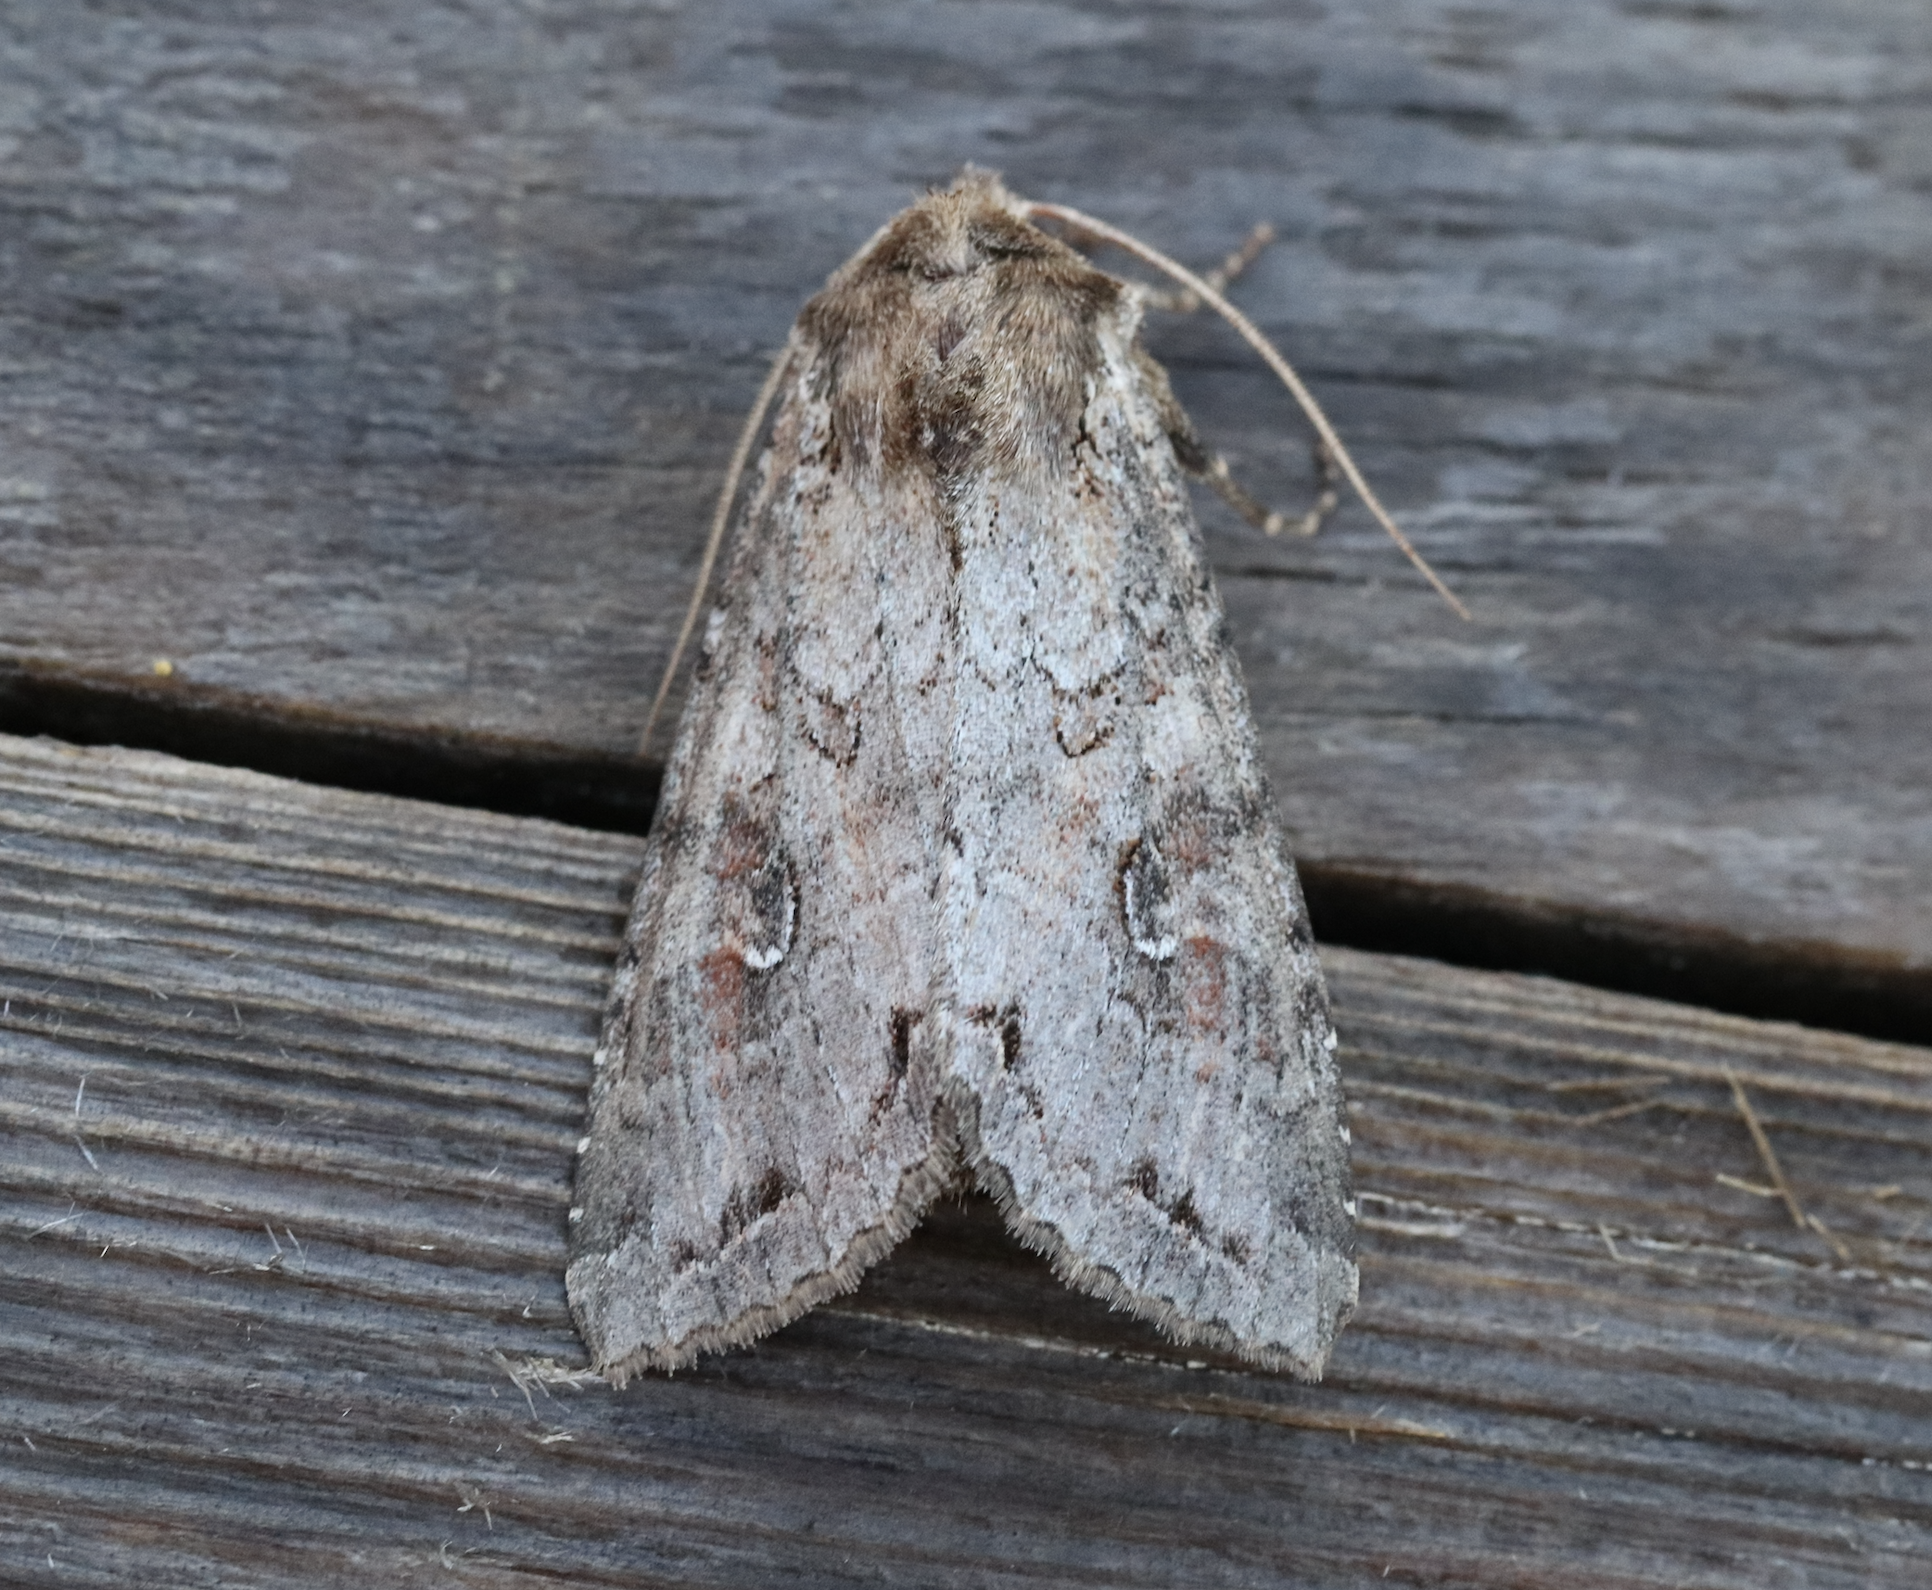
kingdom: Animalia
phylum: Arthropoda
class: Insecta
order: Lepidoptera
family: Noctuidae
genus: Polia
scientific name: Polia bombycina
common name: Pale shining brown
